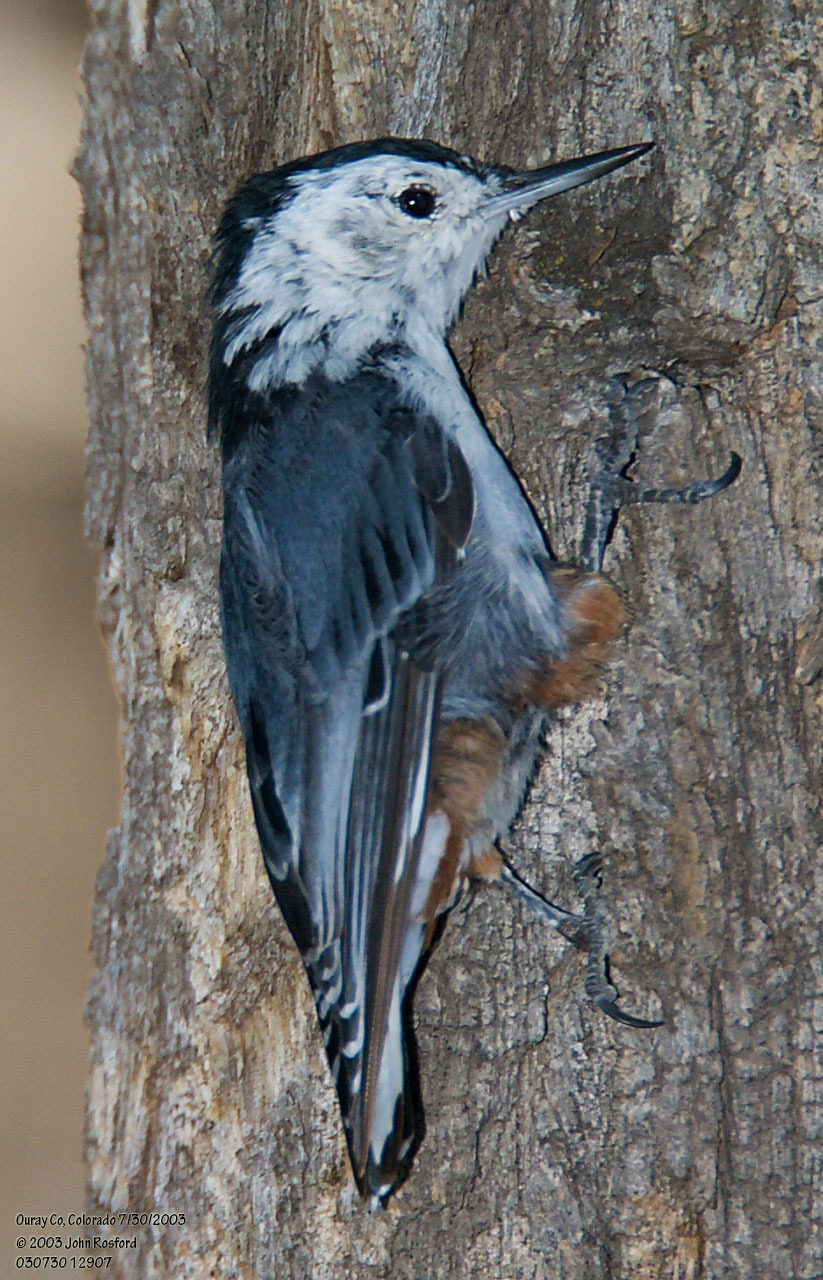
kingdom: Animalia
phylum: Chordata
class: Aves
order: Passeriformes
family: Sittidae
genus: Sitta
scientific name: Sitta carolinensis
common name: White-breasted nuthatch
